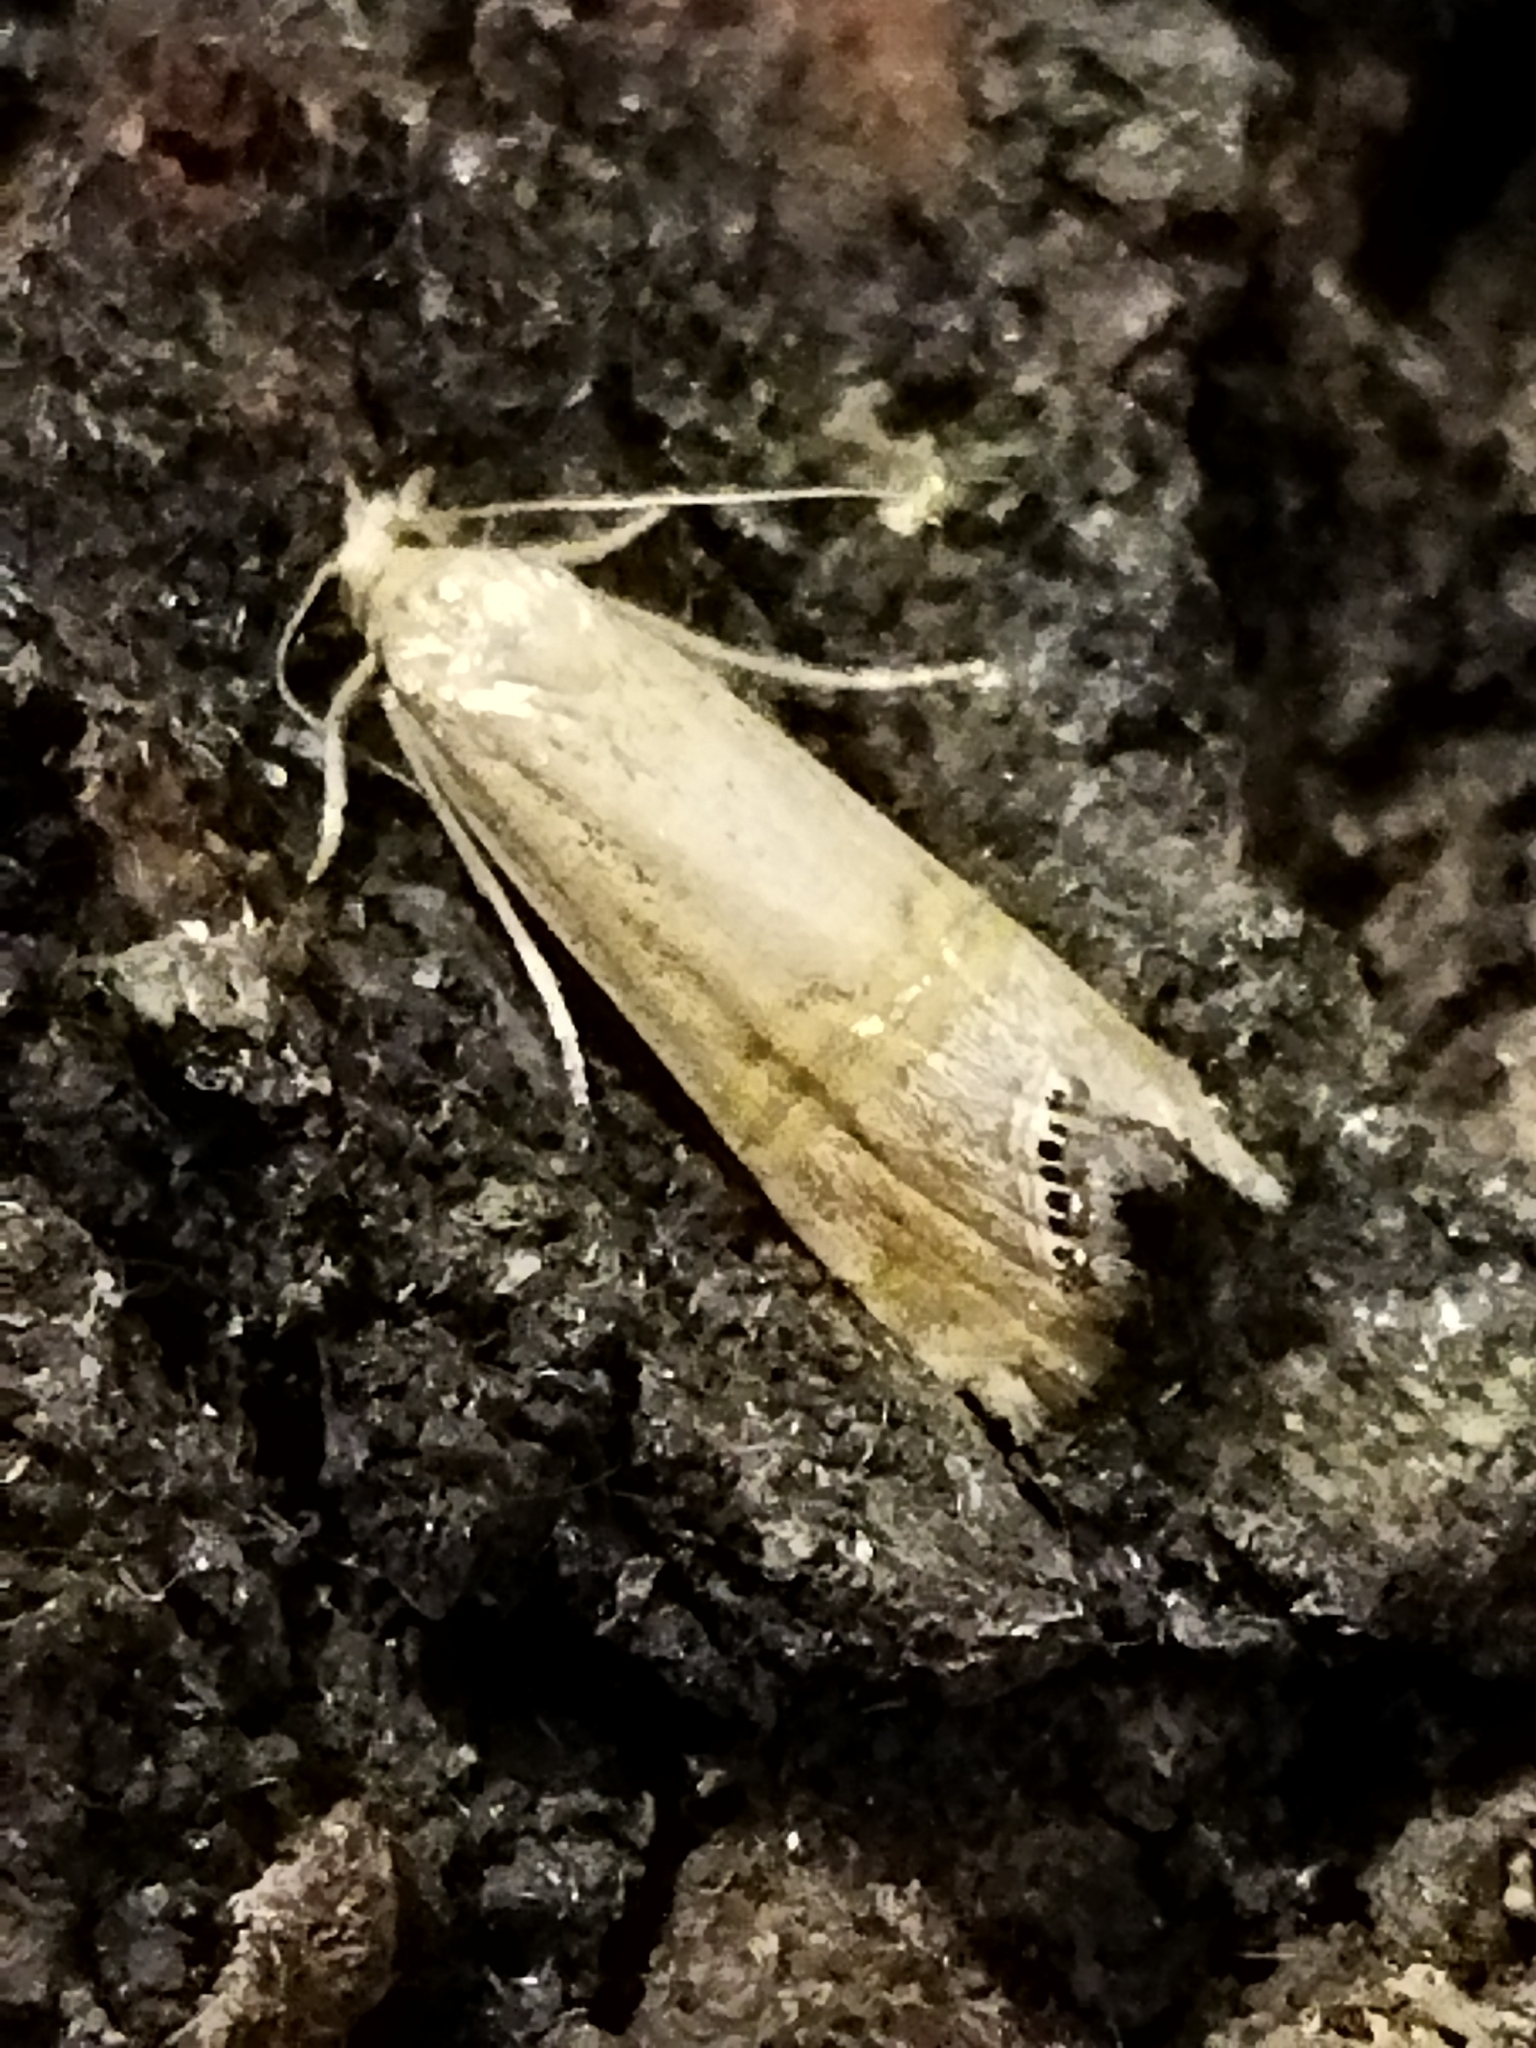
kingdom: Animalia
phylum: Arthropoda
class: Insecta
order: Lepidoptera
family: Crambidae
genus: Euchromius
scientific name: Euchromius ocellea
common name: Necklace veneer moth
